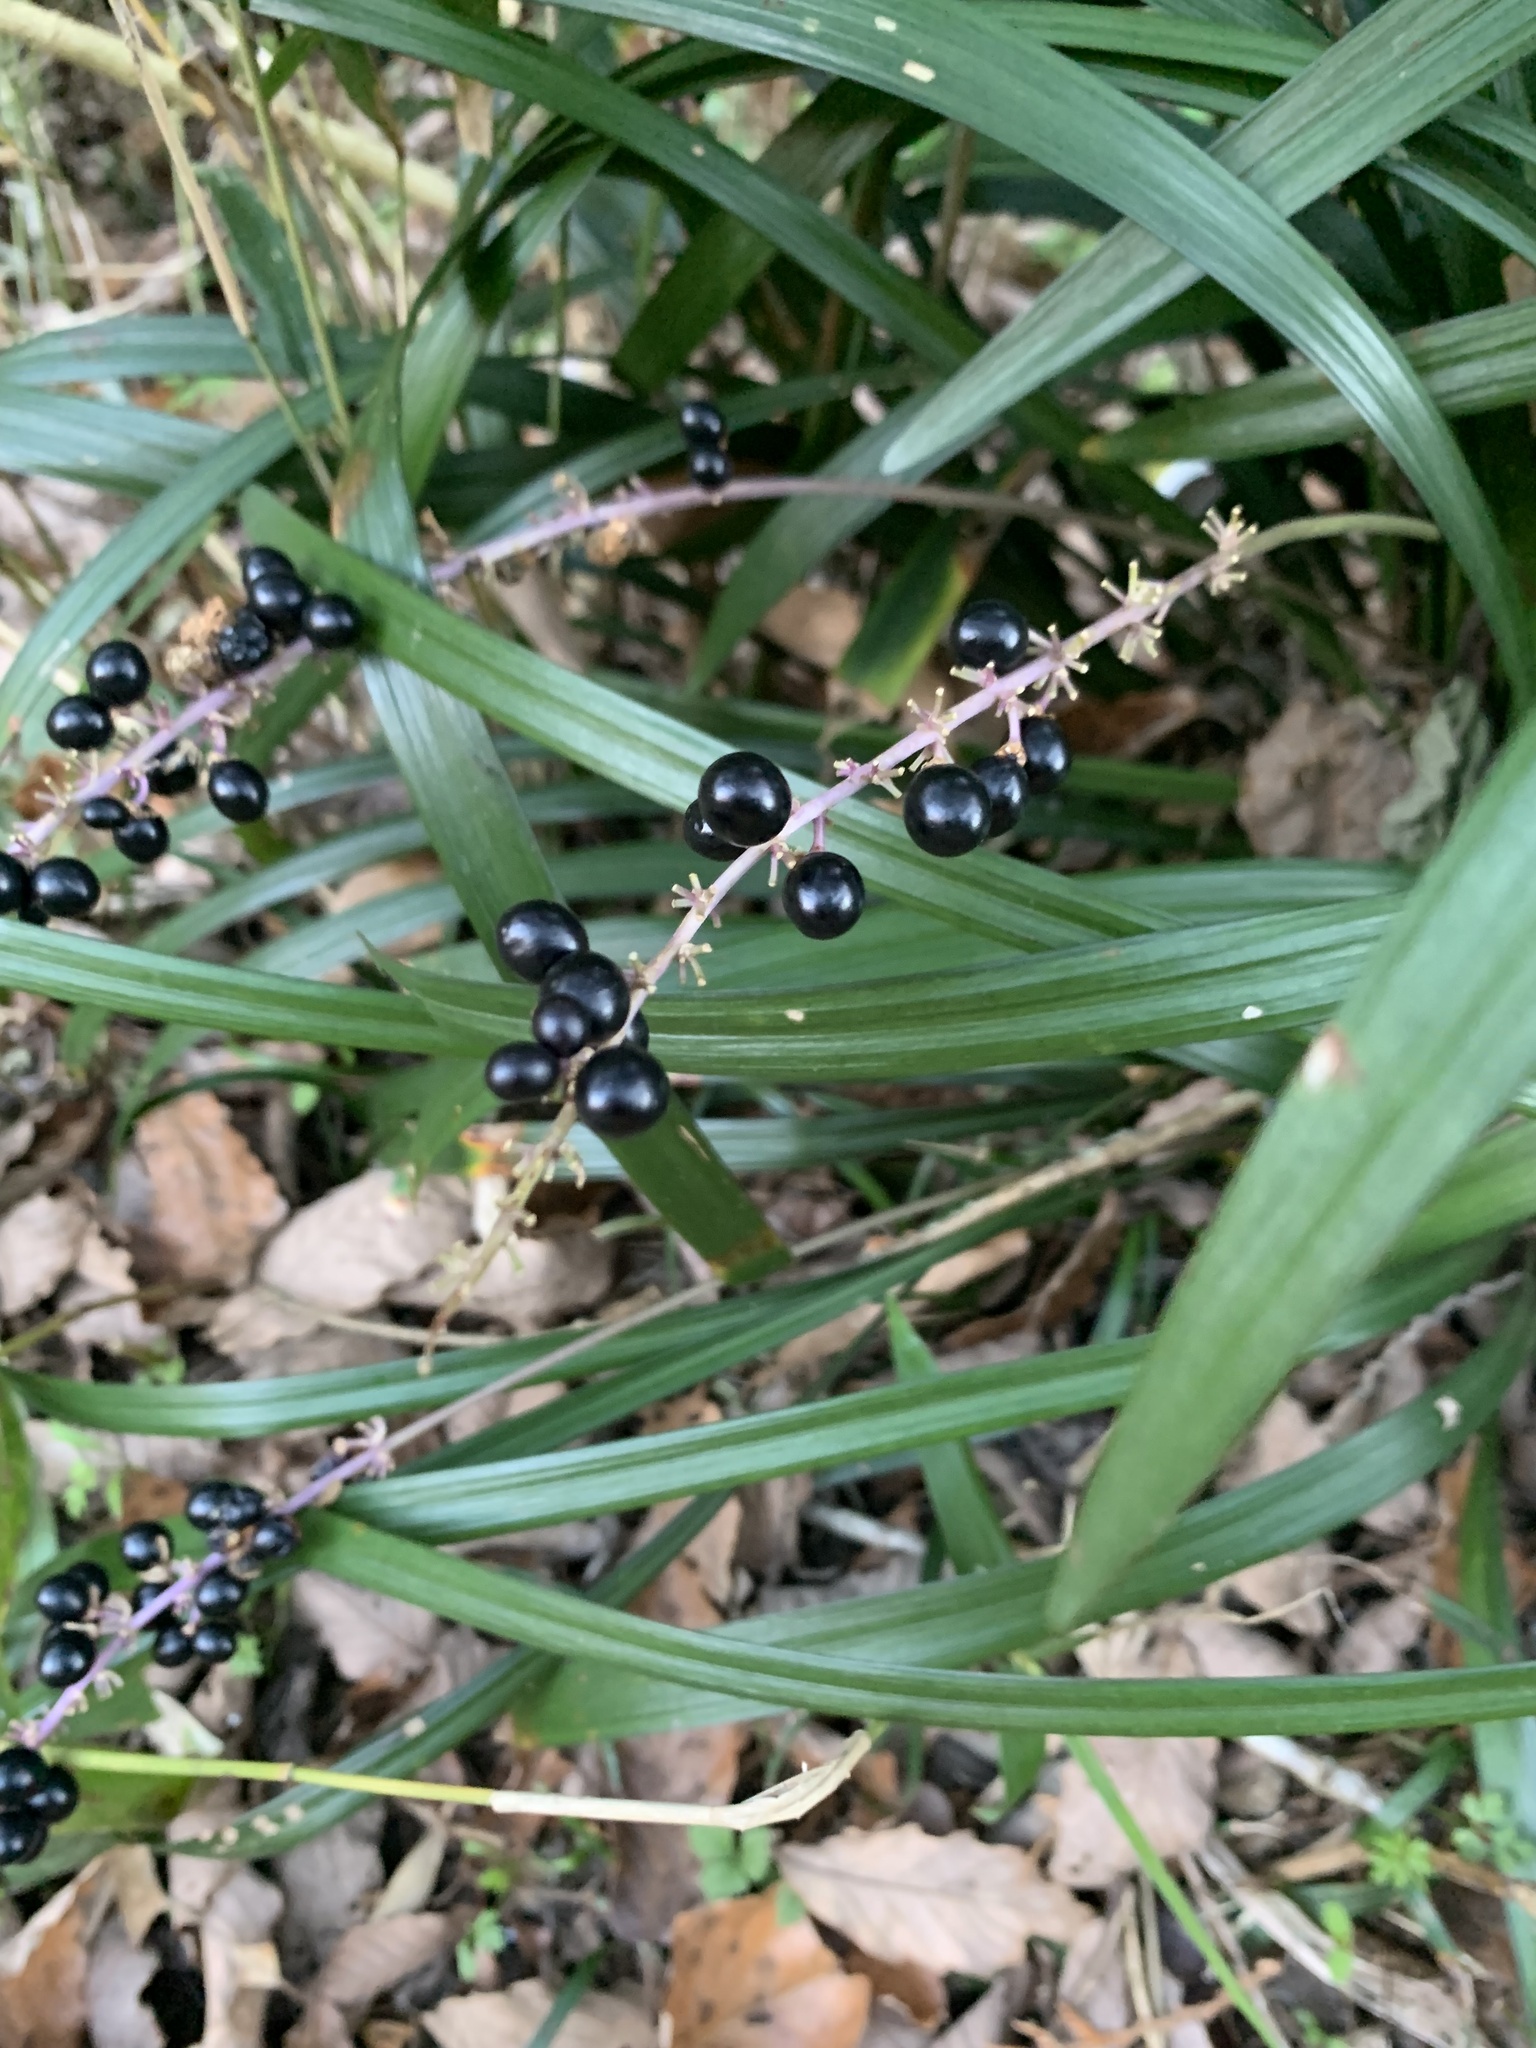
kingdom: Plantae
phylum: Tracheophyta
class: Liliopsida
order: Asparagales
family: Asparagaceae
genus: Liriope
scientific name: Liriope muscari
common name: Big blue lilyturf
